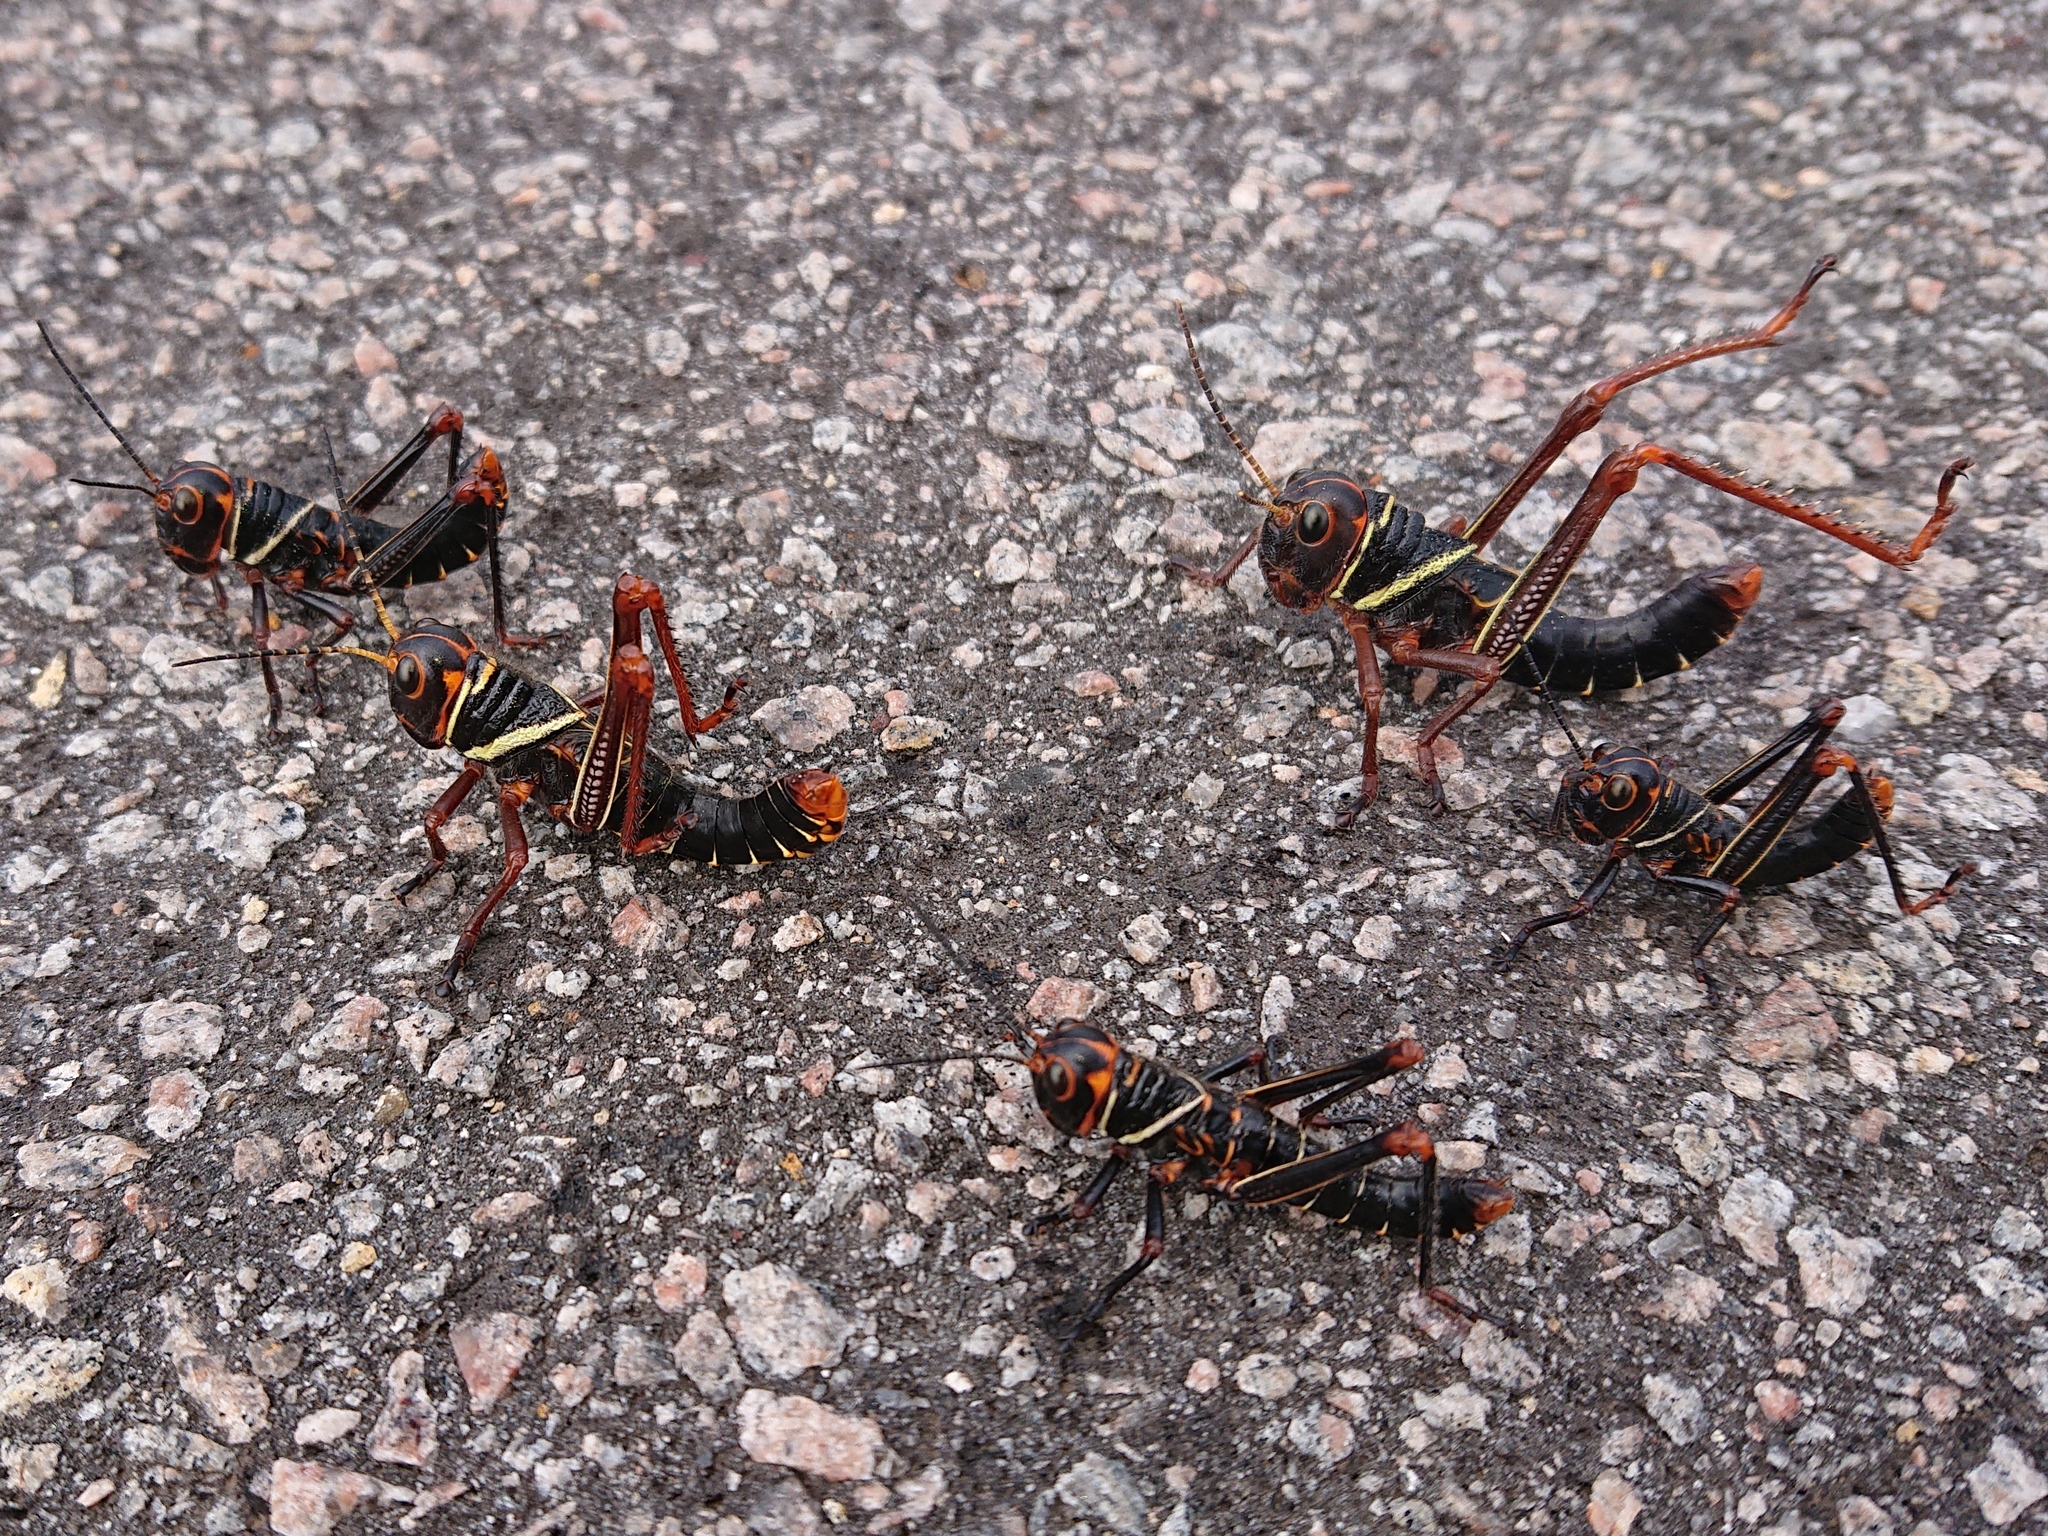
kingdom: Animalia
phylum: Arthropoda
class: Insecta
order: Orthoptera
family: Romaleidae
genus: Tropidacris
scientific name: Tropidacris collaris
